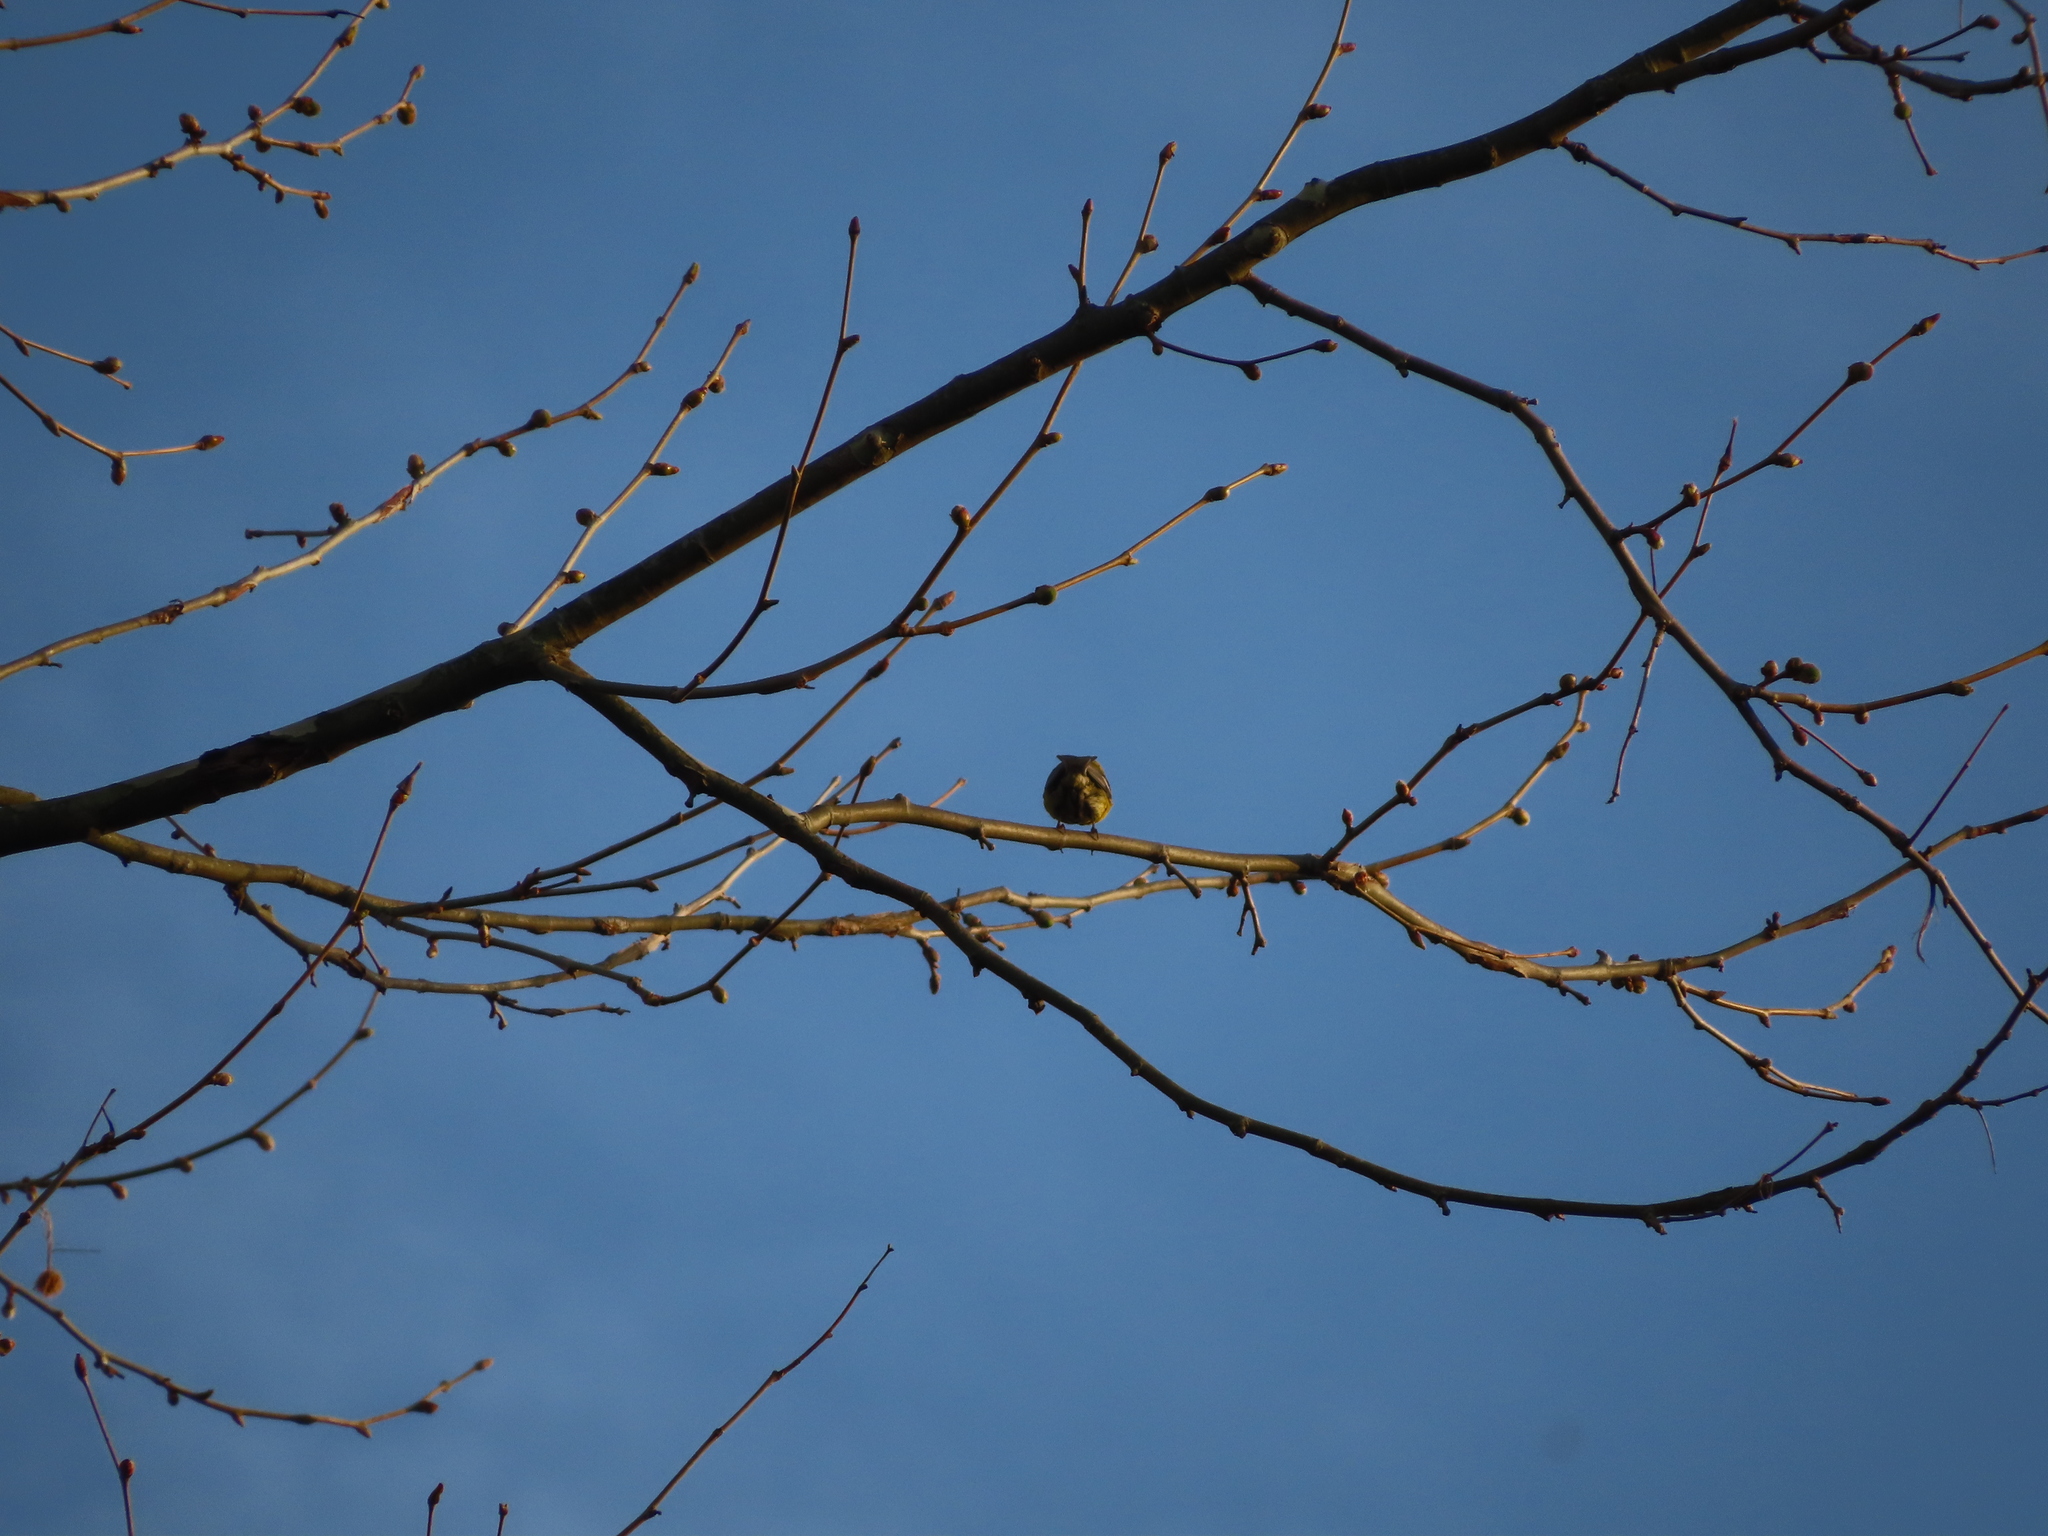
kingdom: Animalia
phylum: Chordata
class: Aves
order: Passeriformes
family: Parulidae
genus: Setophaga
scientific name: Setophaga pinus
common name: Pine warbler
